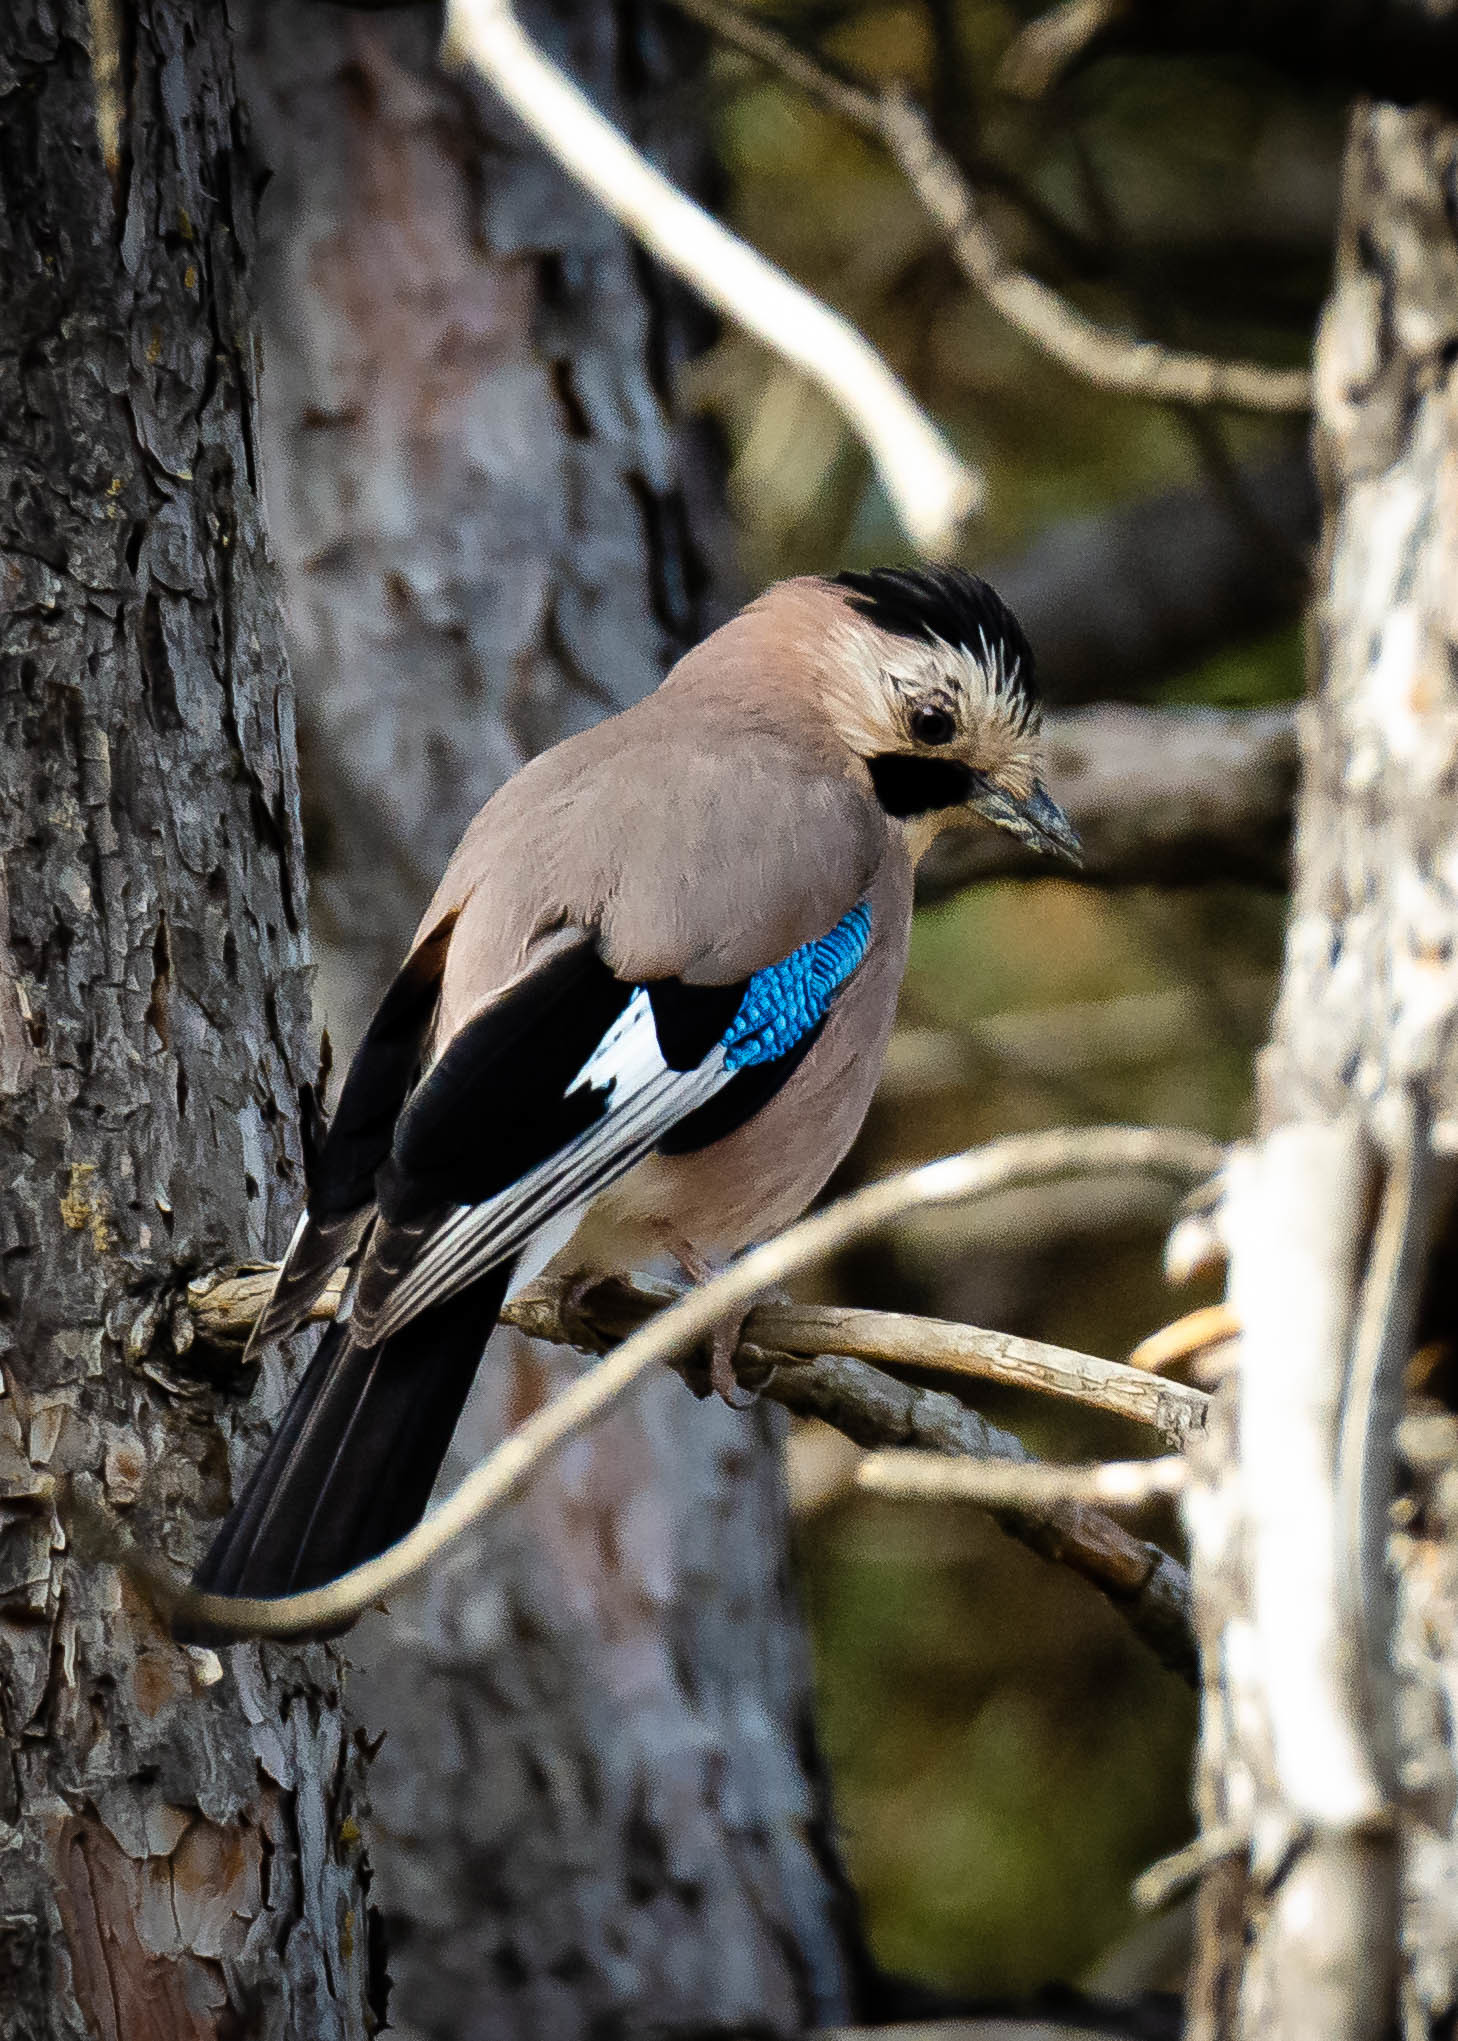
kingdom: Animalia
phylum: Chordata
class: Aves
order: Passeriformes
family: Corvidae
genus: Garrulus
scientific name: Garrulus glandarius
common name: Eurasian jay
